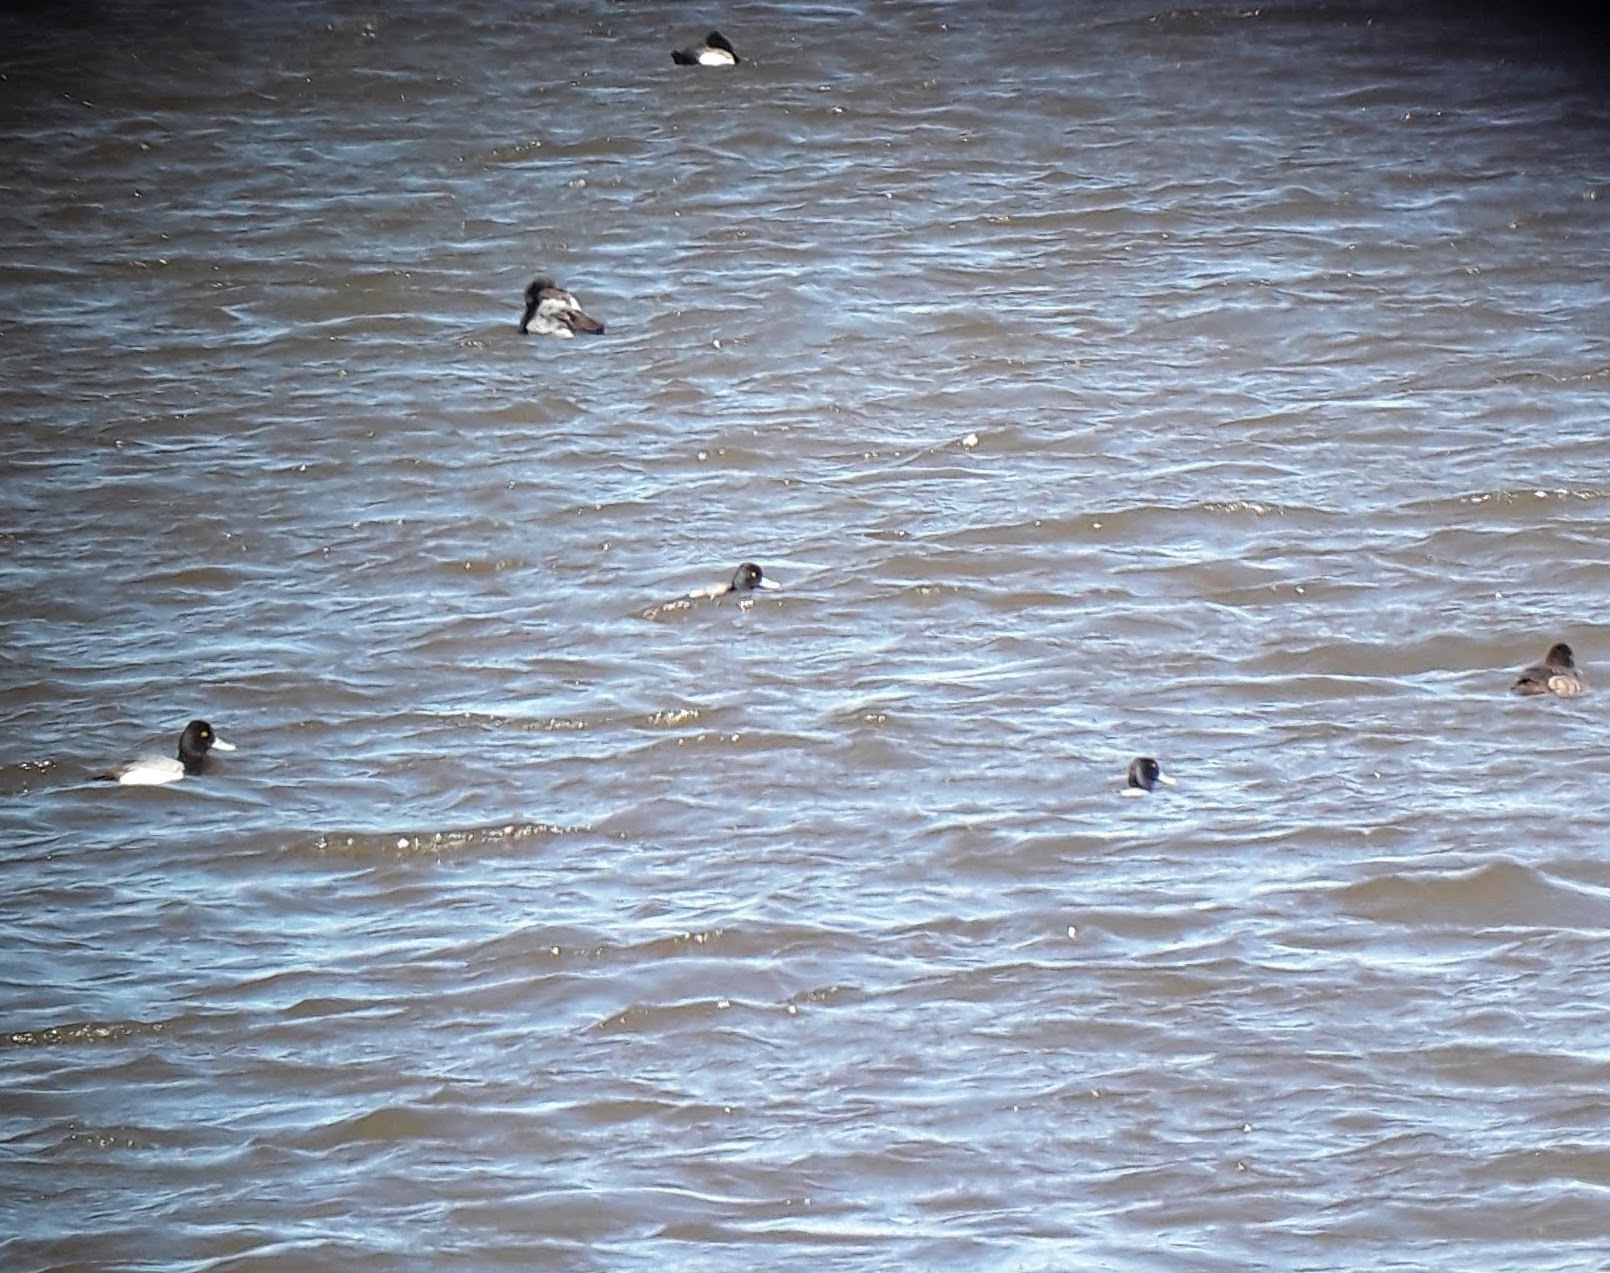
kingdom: Animalia
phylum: Chordata
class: Aves
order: Anseriformes
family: Anatidae
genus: Aythya
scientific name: Aythya affinis
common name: Lesser scaup
